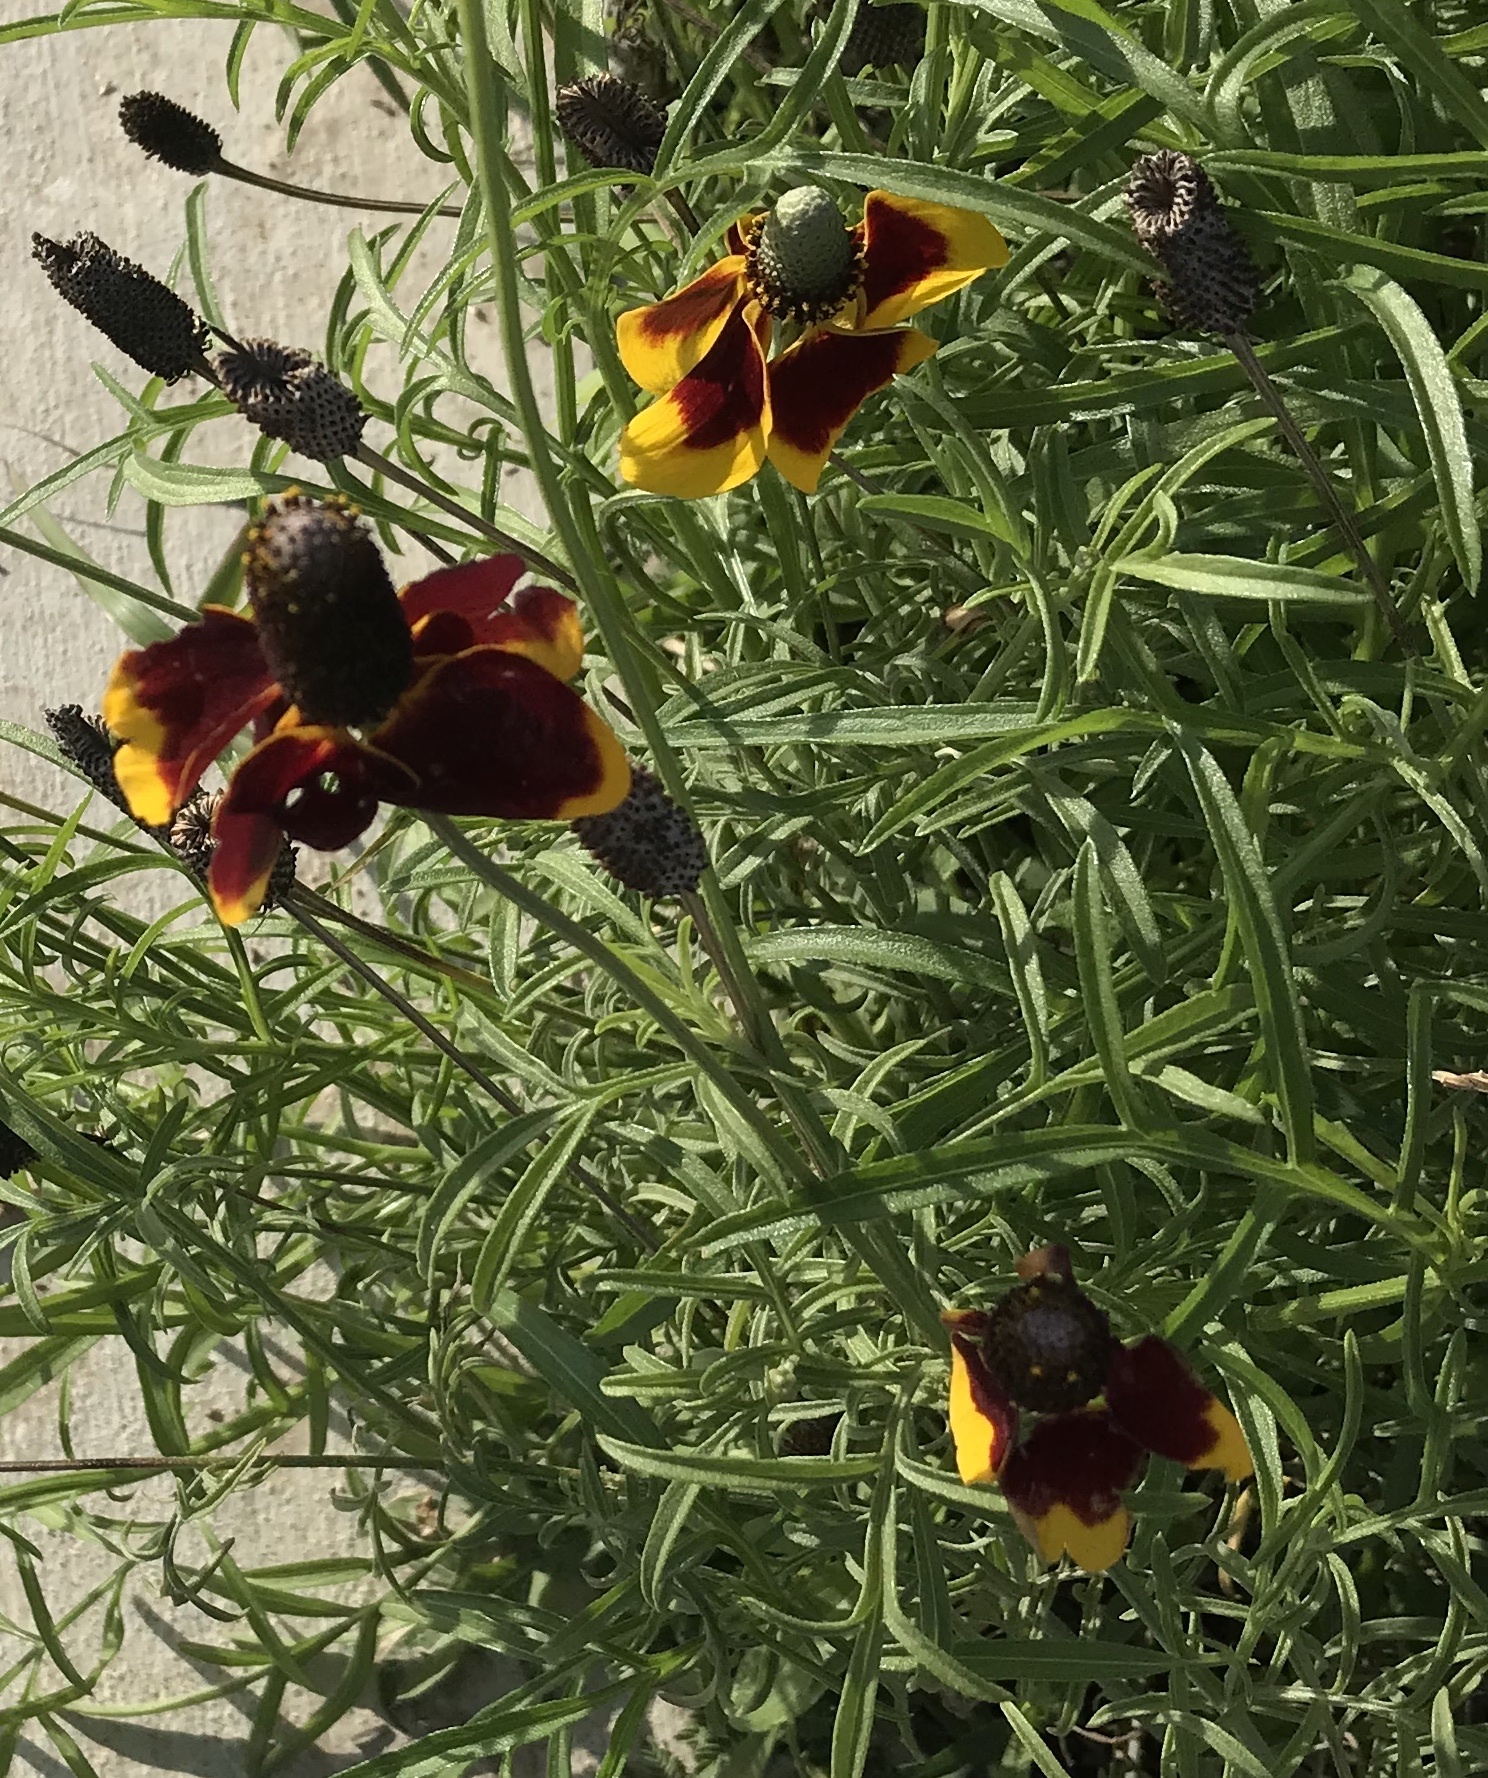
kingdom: Plantae
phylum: Tracheophyta
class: Magnoliopsida
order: Asterales
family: Asteraceae
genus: Ratibida
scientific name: Ratibida columnifera
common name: Prairie coneflower
